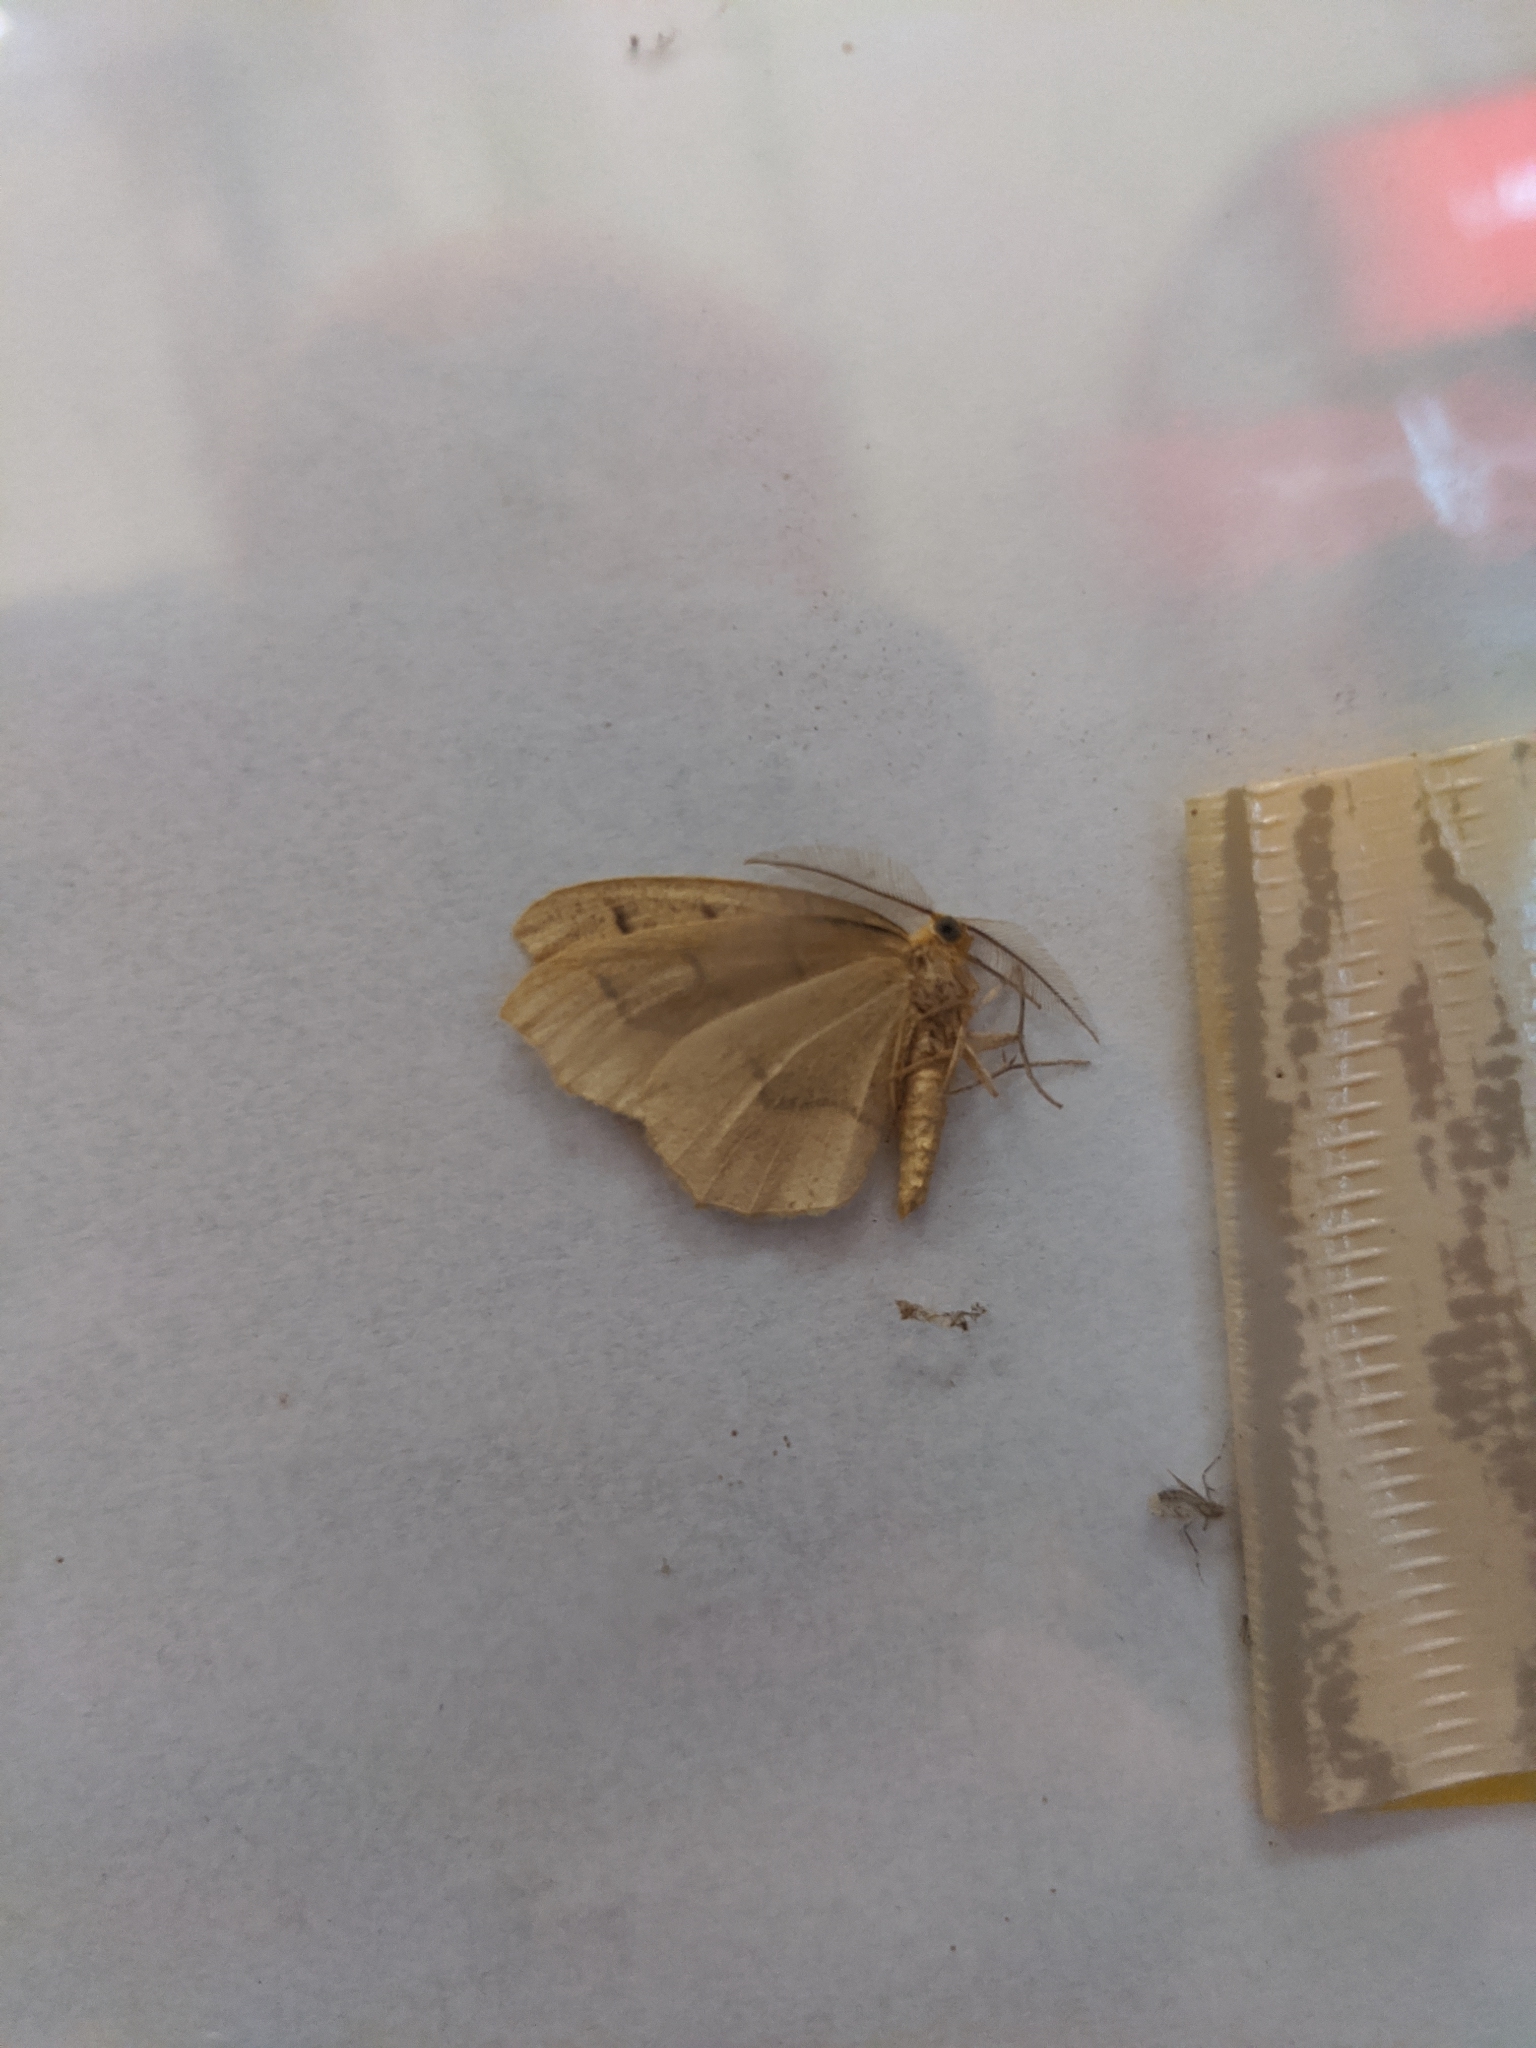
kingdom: Animalia
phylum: Arthropoda
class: Insecta
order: Lepidoptera
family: Geometridae
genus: Lambdina
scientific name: Lambdina fiscellaria
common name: Hemlock looper
